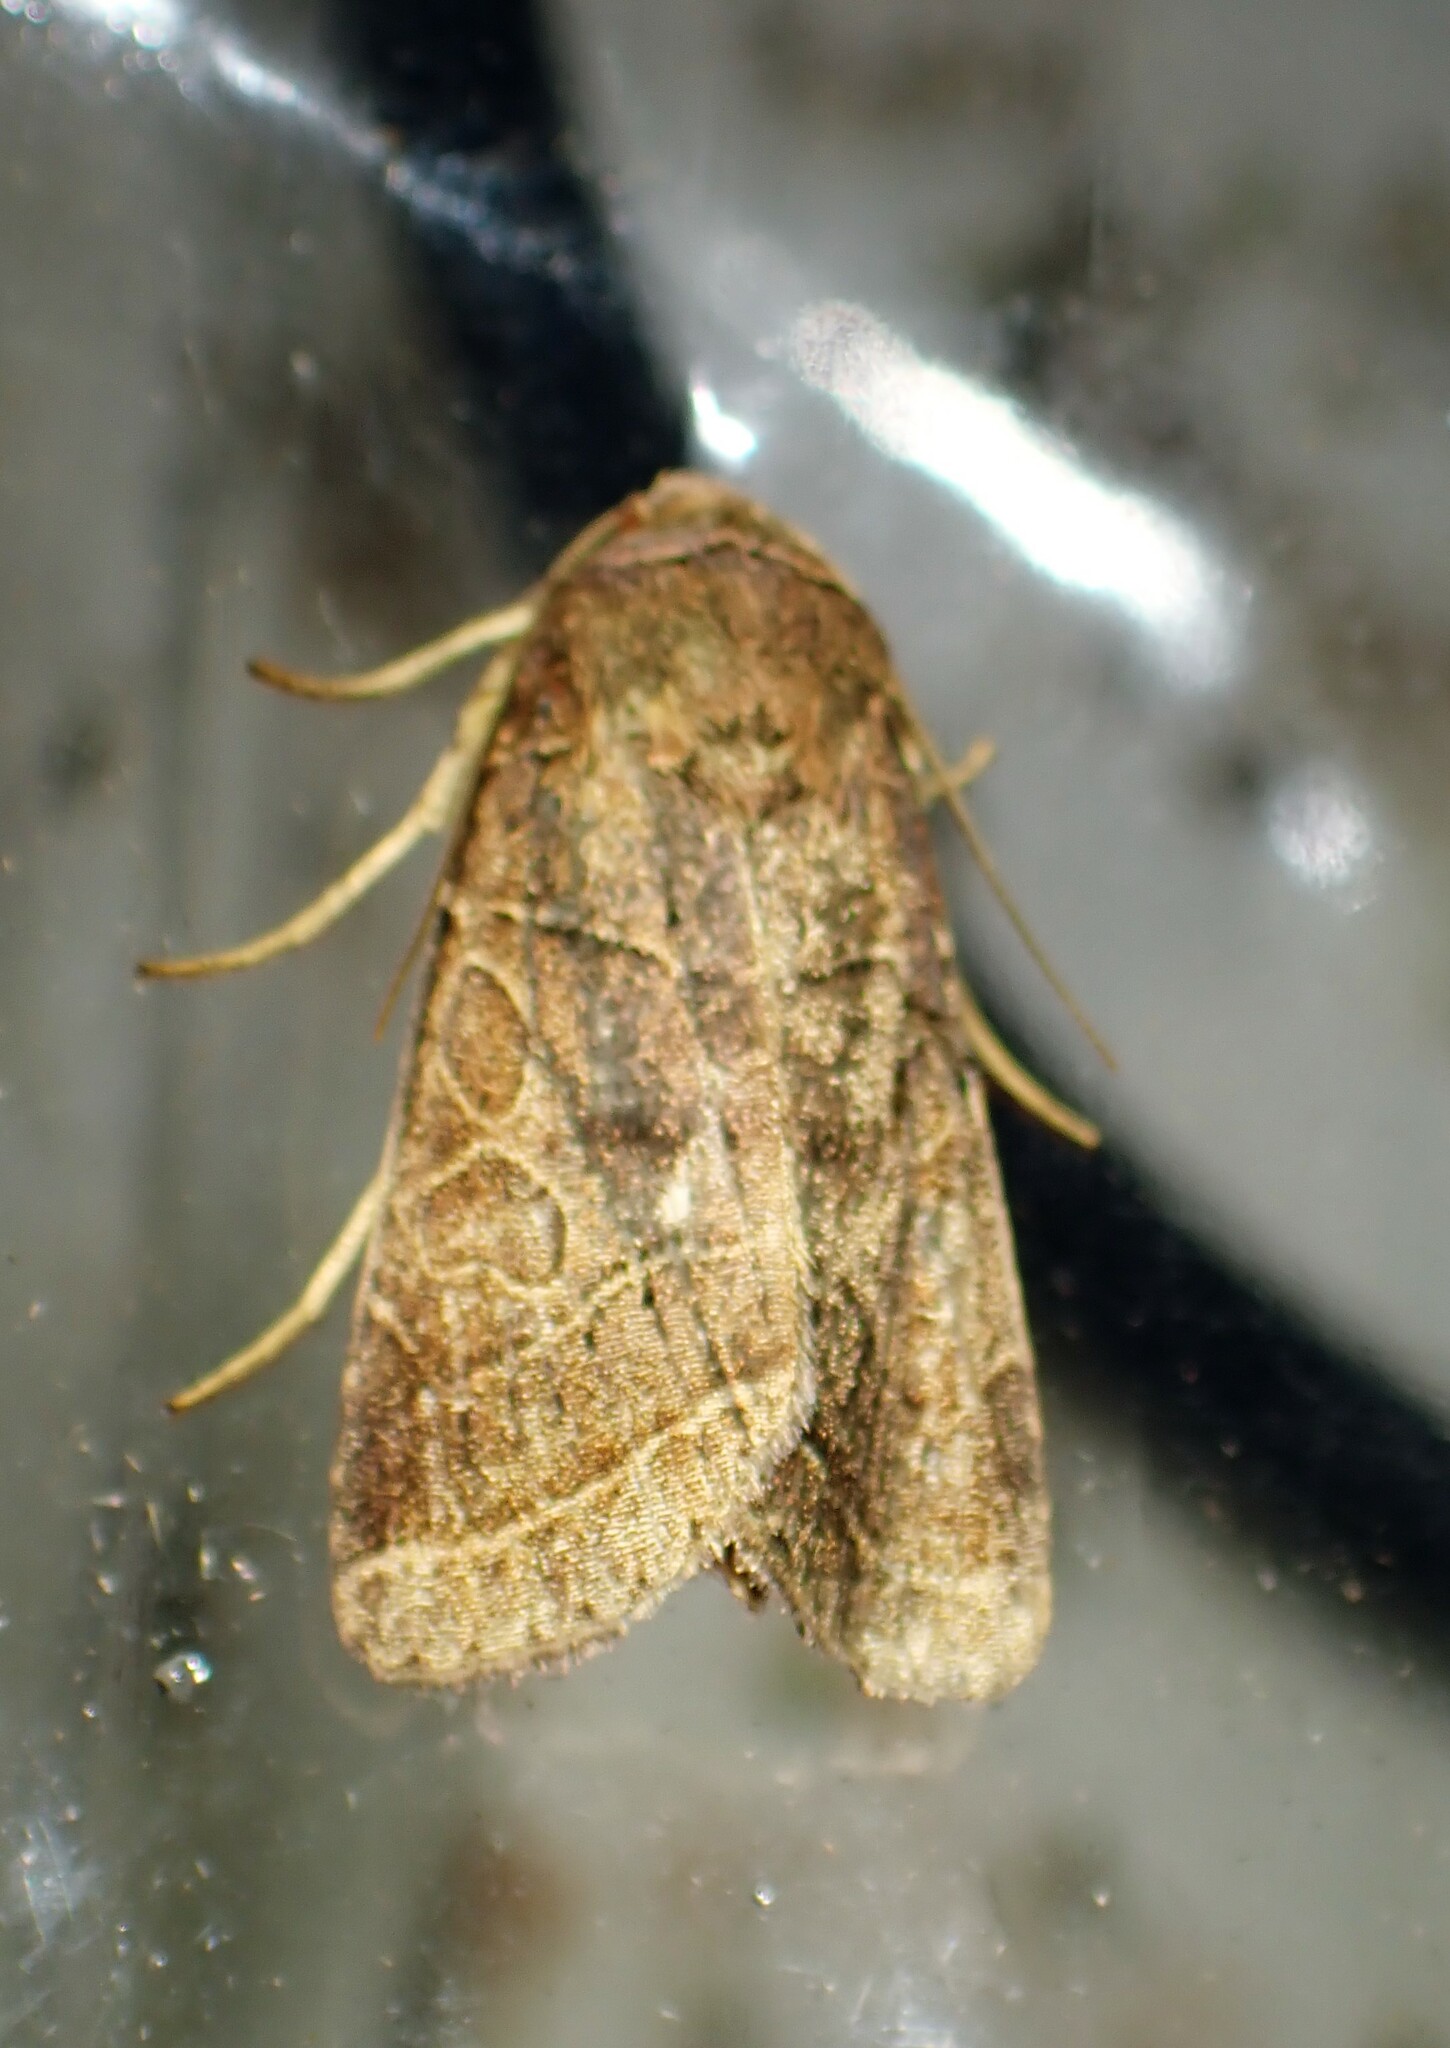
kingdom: Animalia
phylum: Arthropoda
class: Insecta
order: Lepidoptera
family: Noctuidae
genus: Orthodes
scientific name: Orthodes majuscula
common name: Rustic quaker
